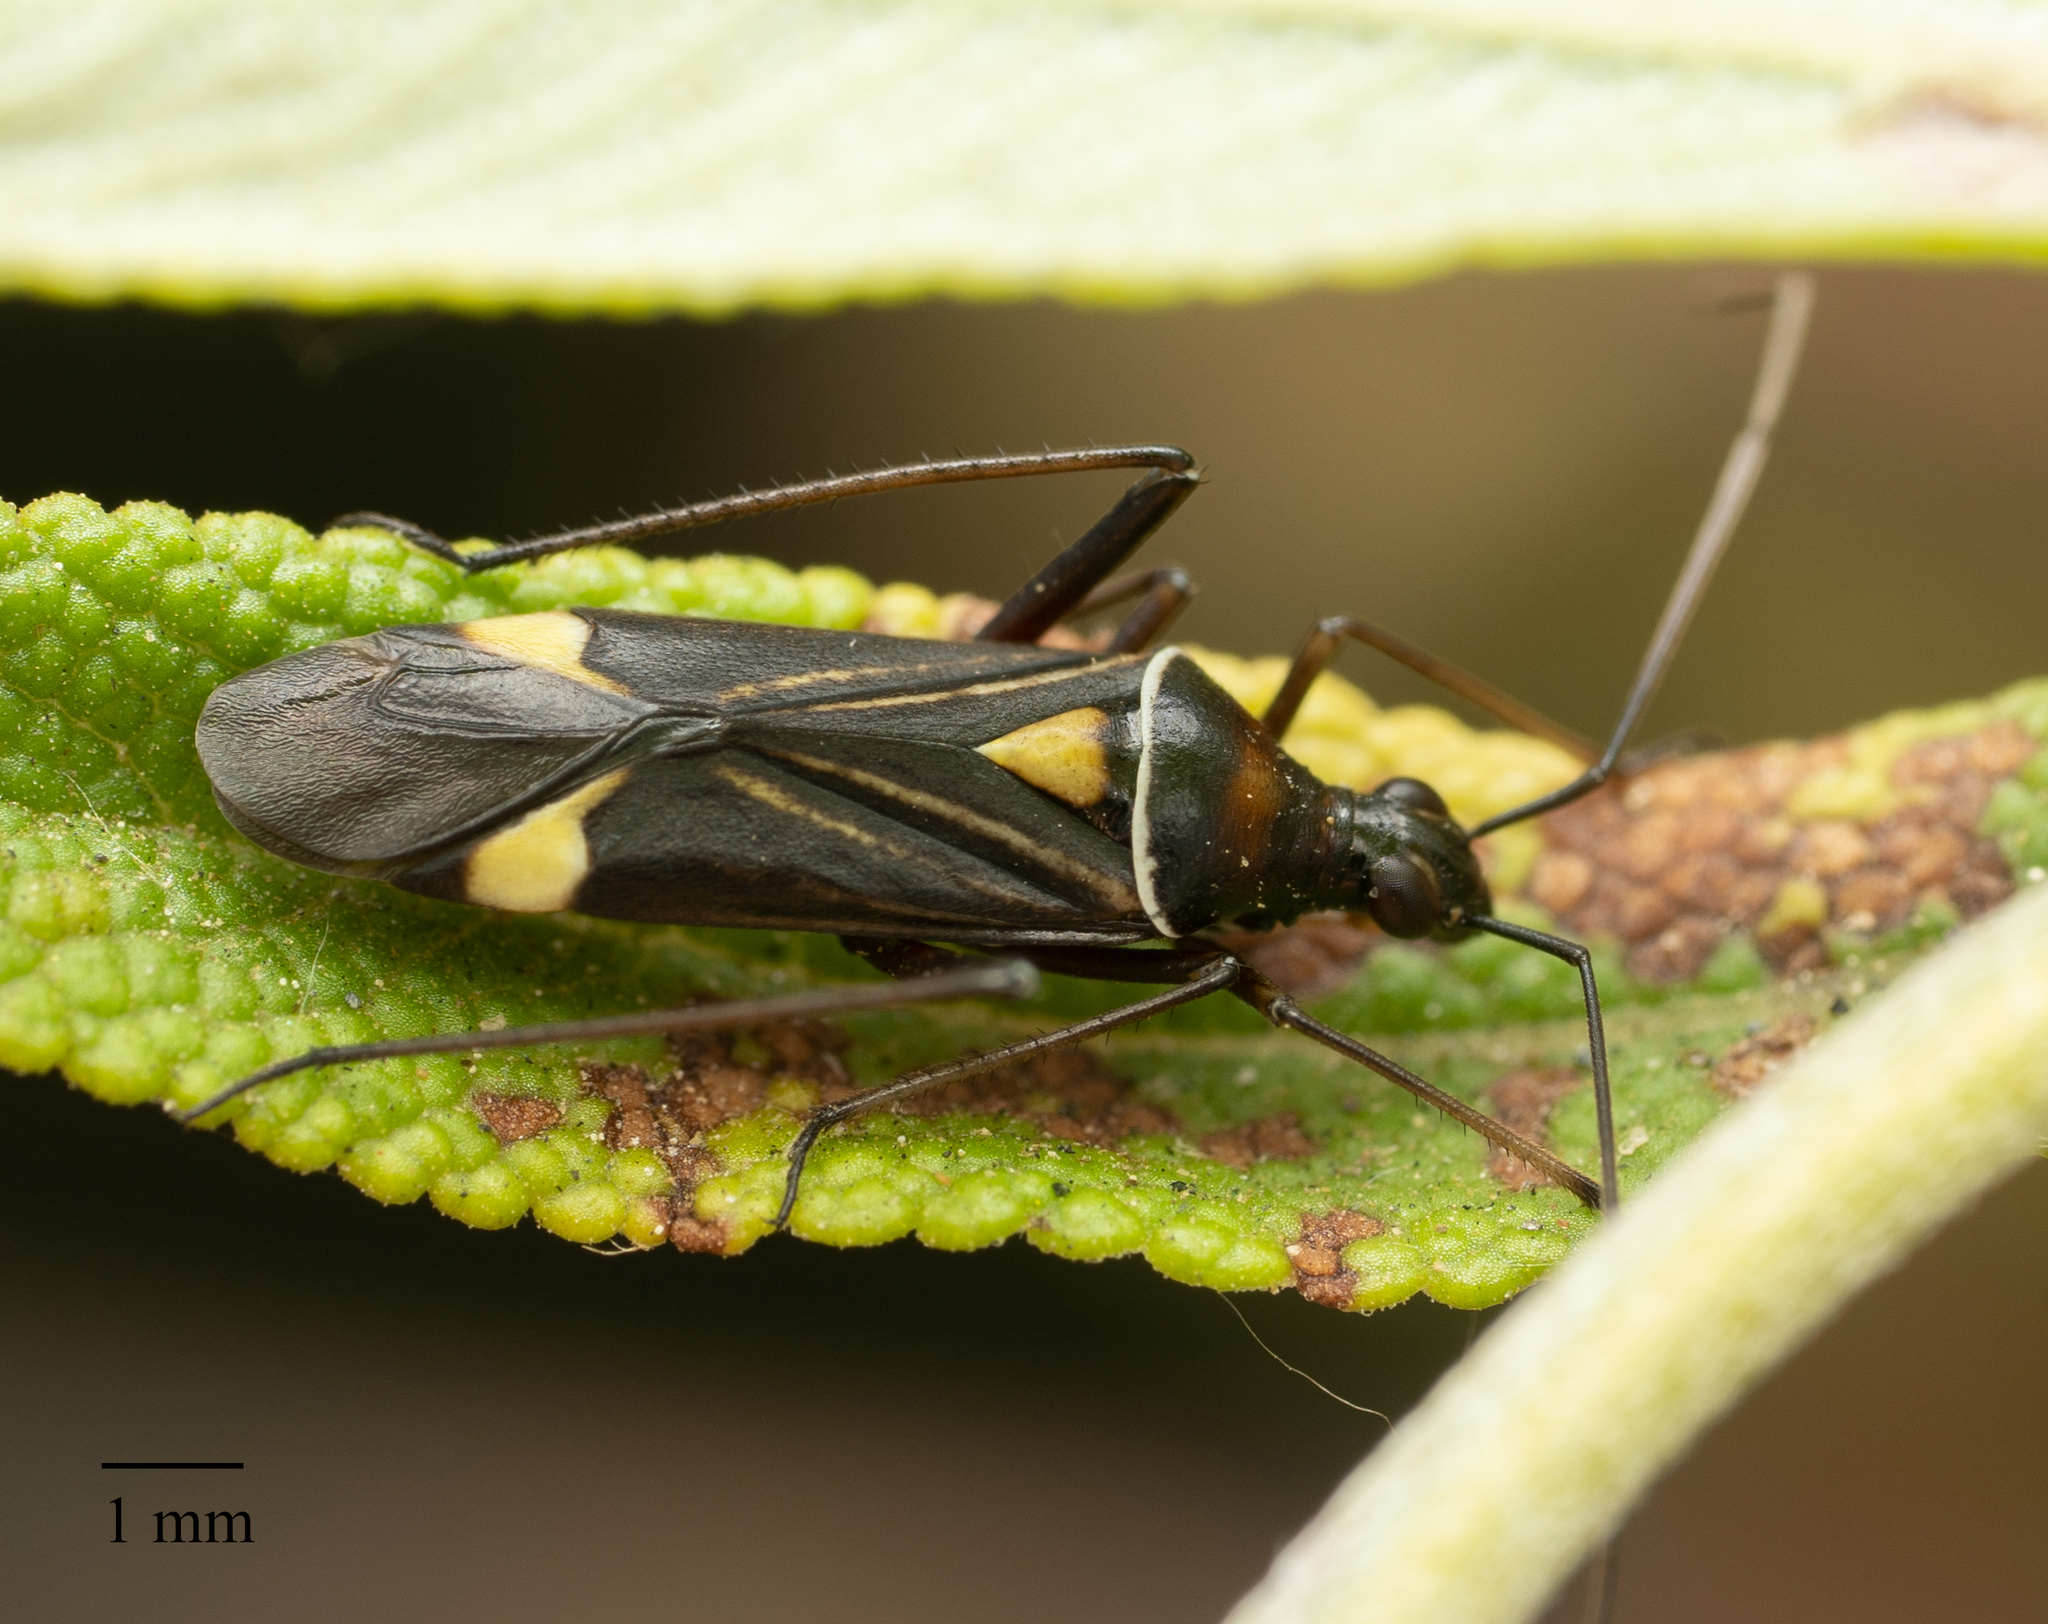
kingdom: Animalia
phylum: Arthropoda
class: Insecta
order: Hemiptera
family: Miridae
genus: Closterocoris
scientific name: Closterocoris amoenus
